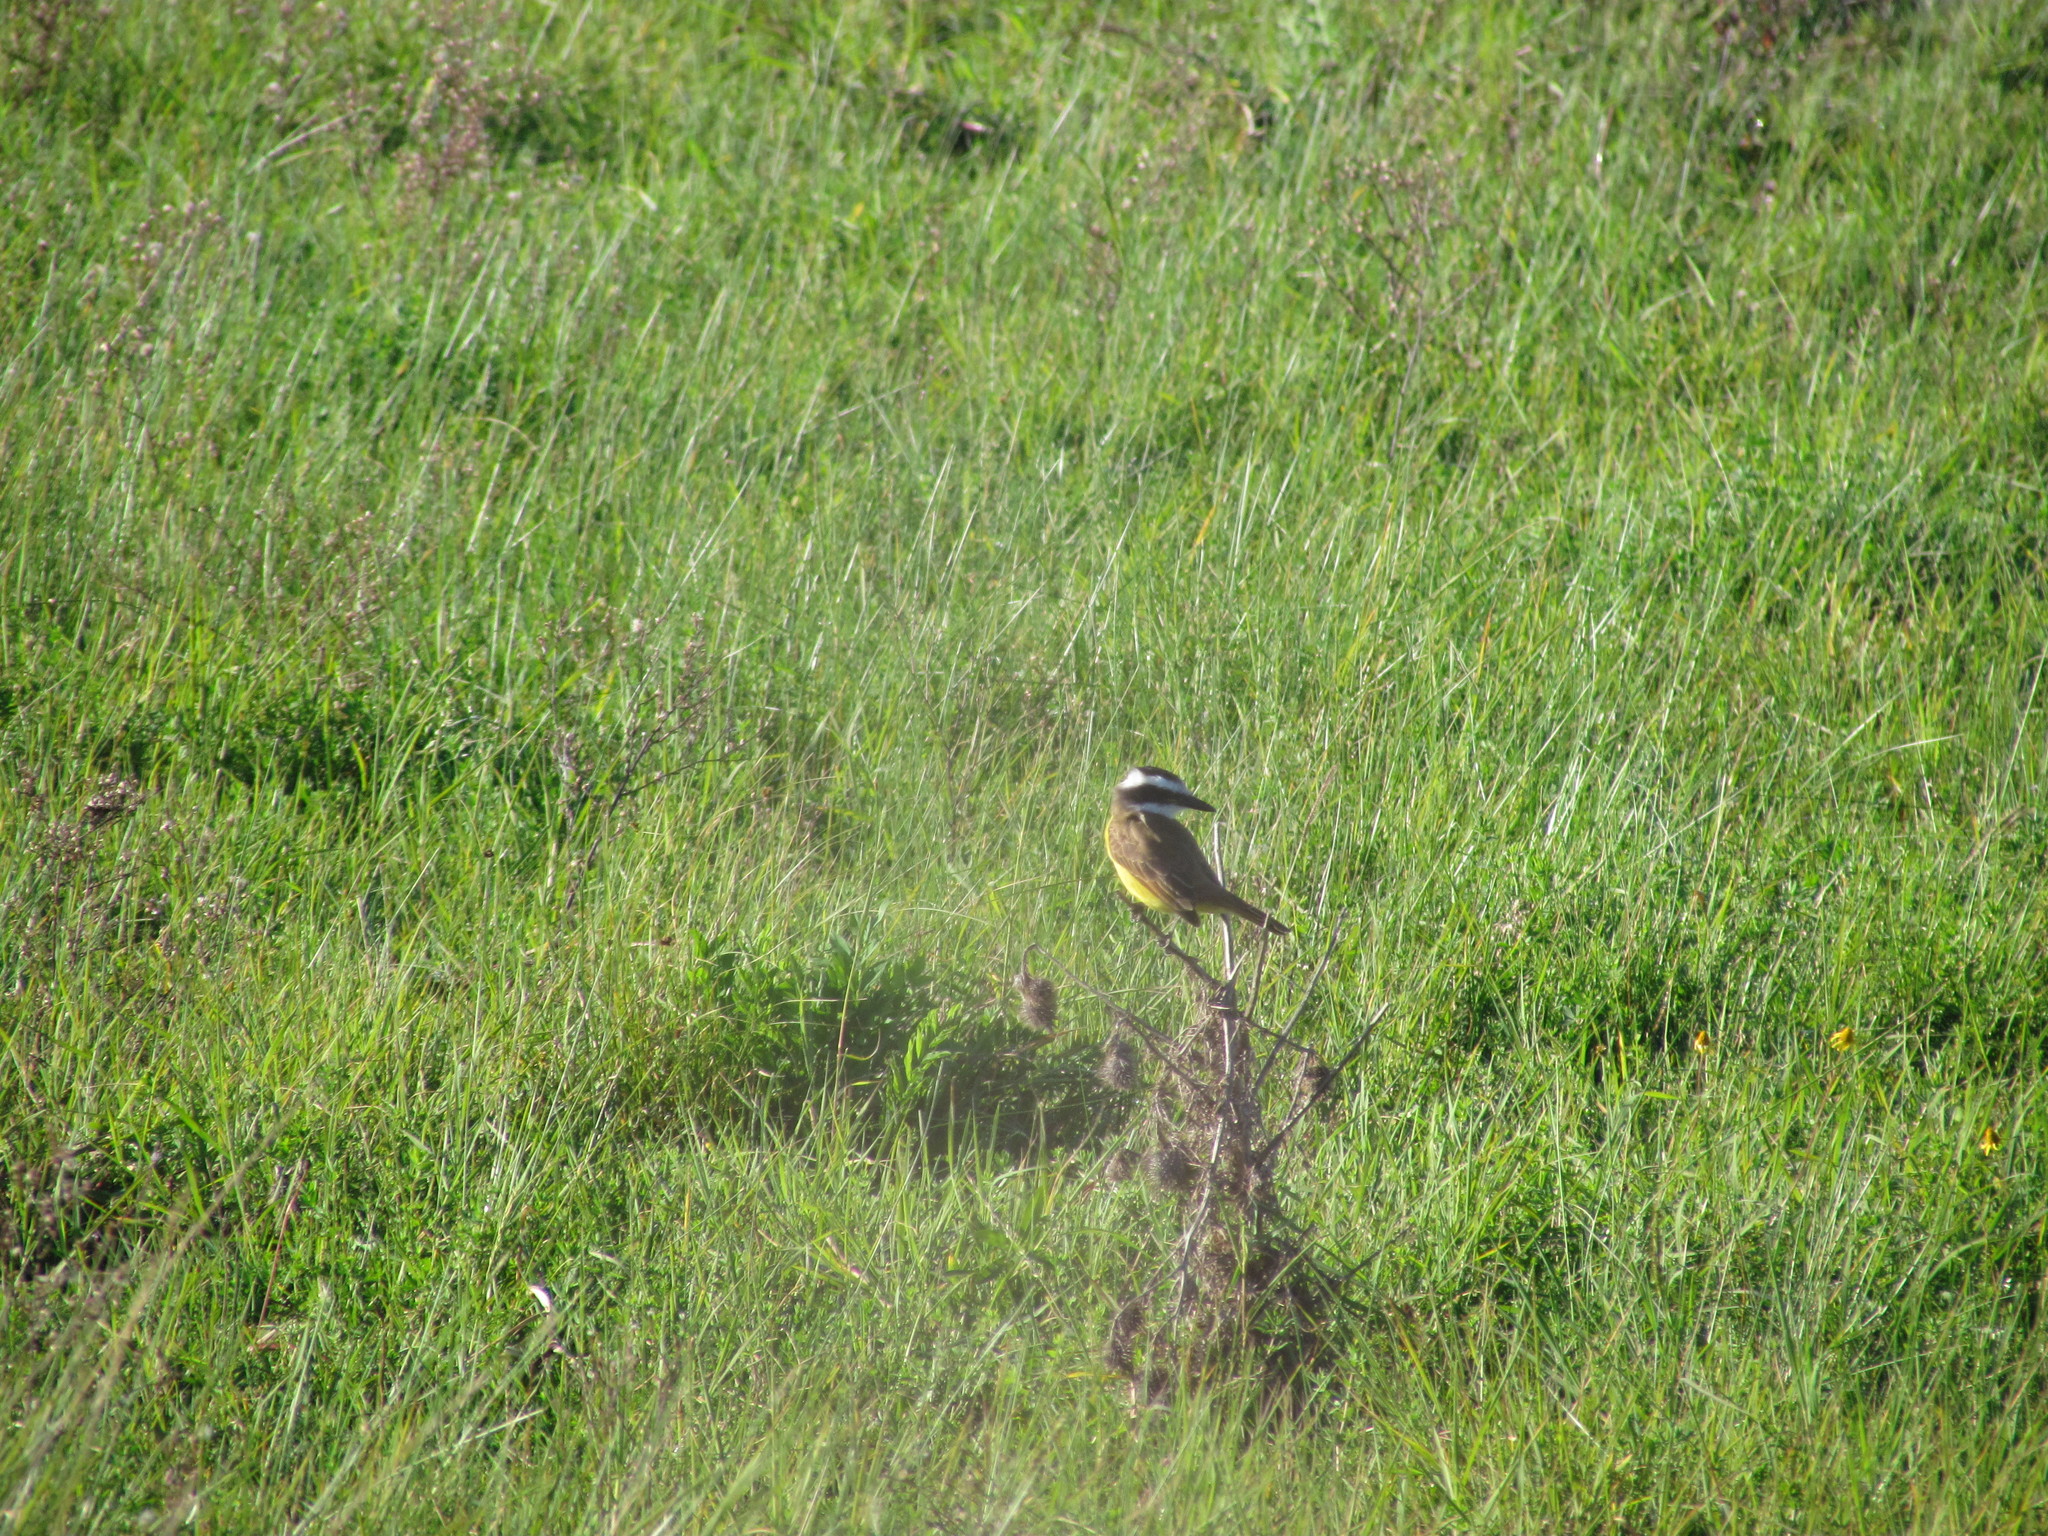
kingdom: Animalia
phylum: Chordata
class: Aves
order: Passeriformes
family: Tyrannidae
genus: Pitangus
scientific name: Pitangus sulphuratus
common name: Great kiskadee
